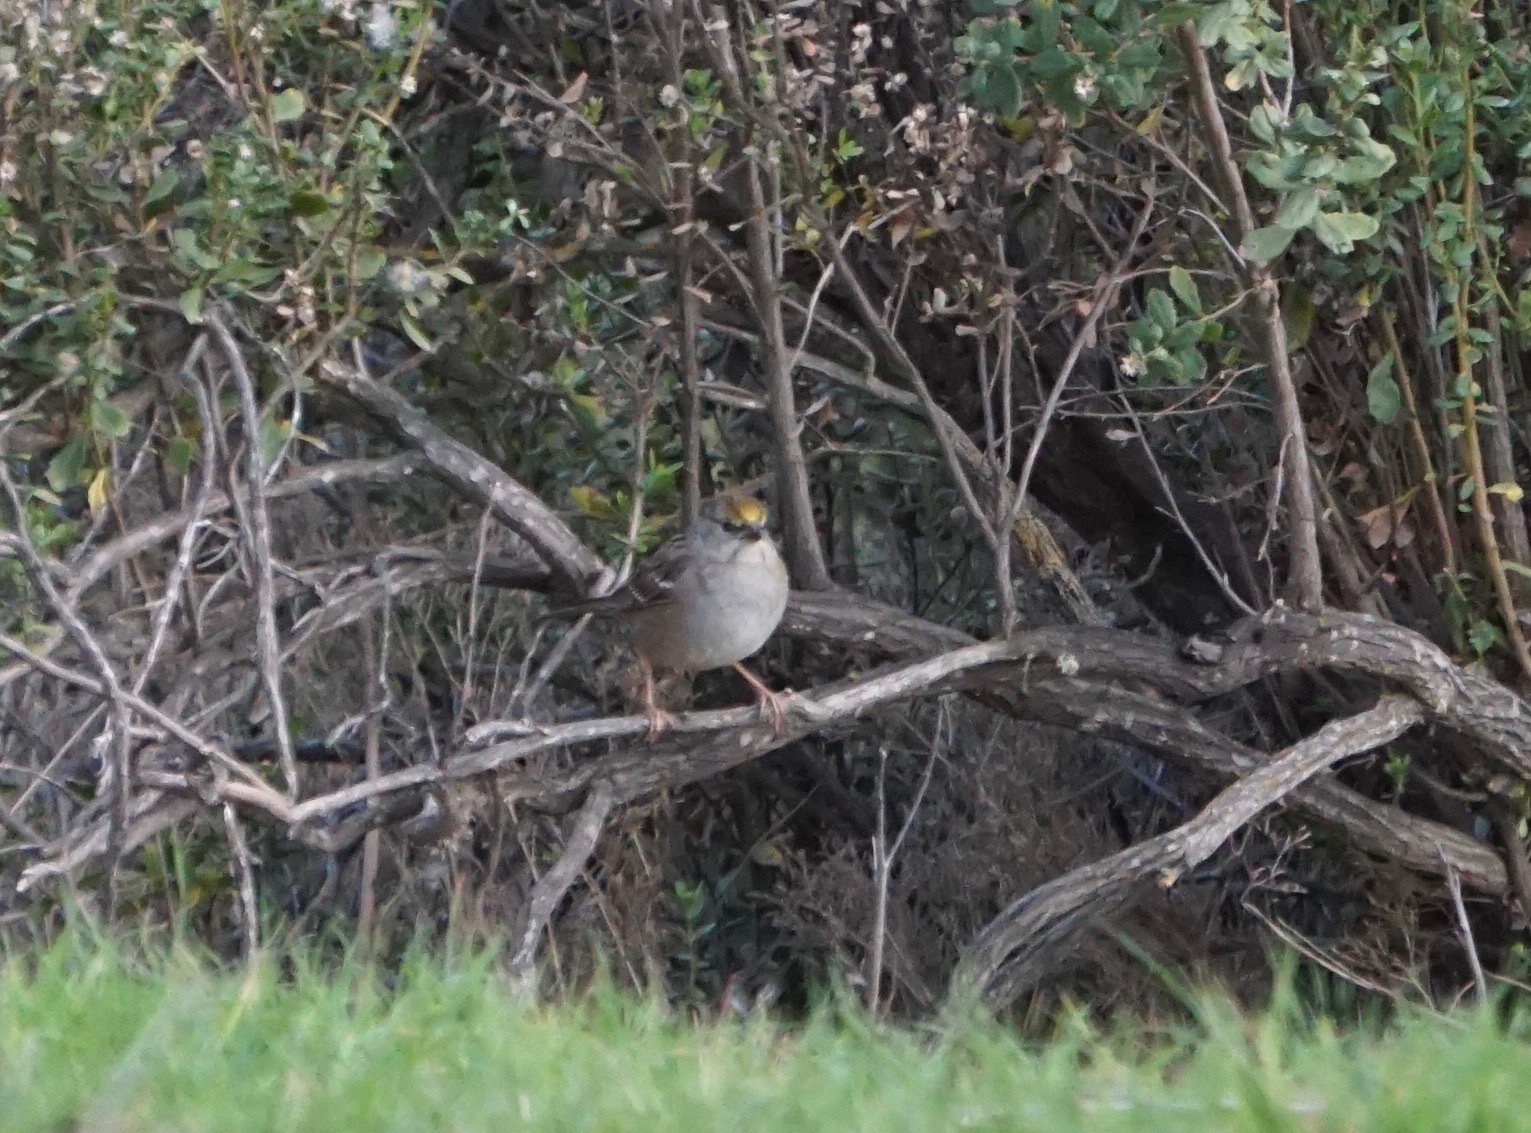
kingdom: Animalia
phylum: Chordata
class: Aves
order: Passeriformes
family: Passerellidae
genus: Zonotrichia
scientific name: Zonotrichia atricapilla
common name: Golden-crowned sparrow
